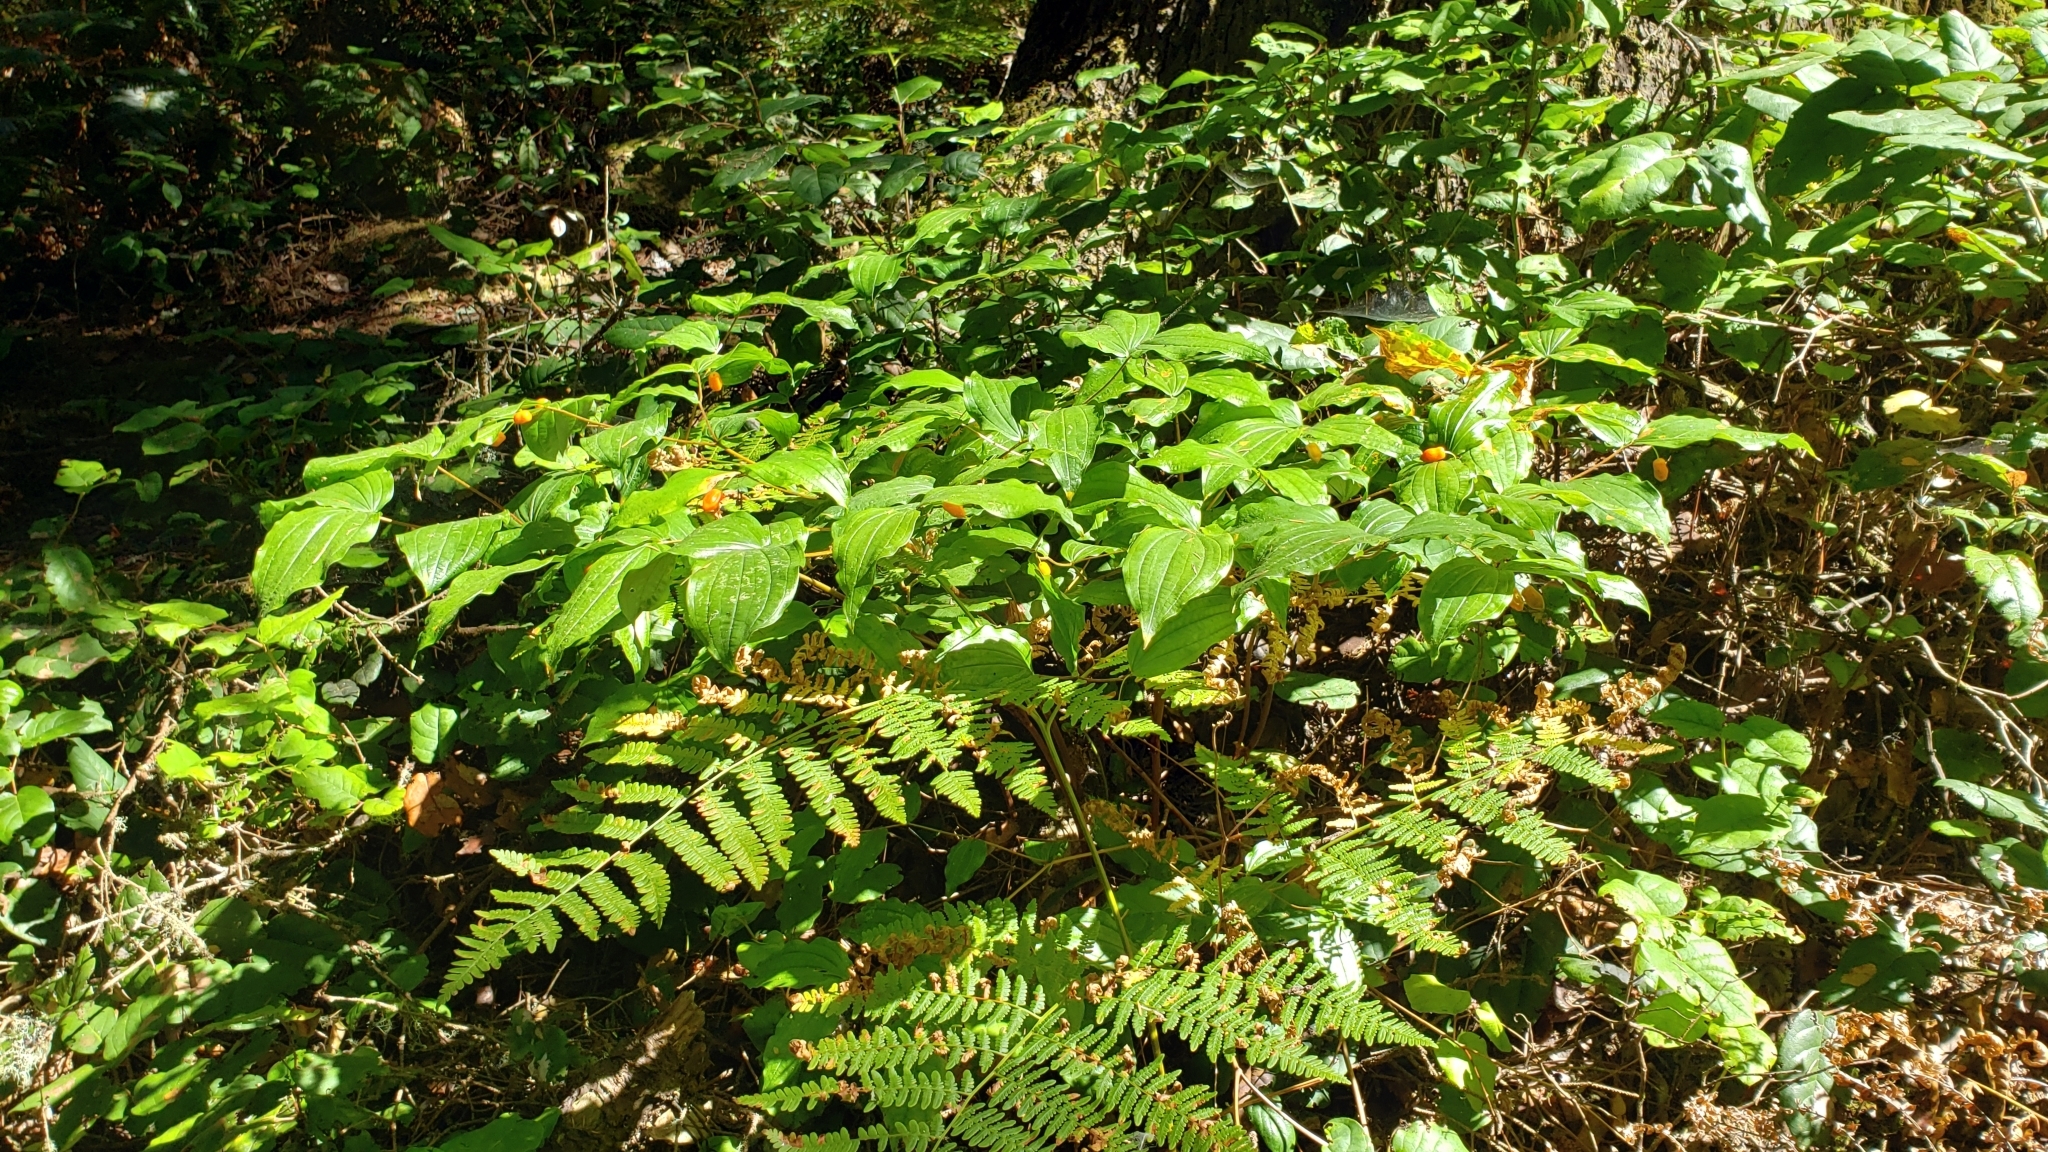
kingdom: Plantae
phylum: Tracheophyta
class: Liliopsida
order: Liliales
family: Liliaceae
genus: Prosartes
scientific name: Prosartes smithii
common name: Fairy-lantern
